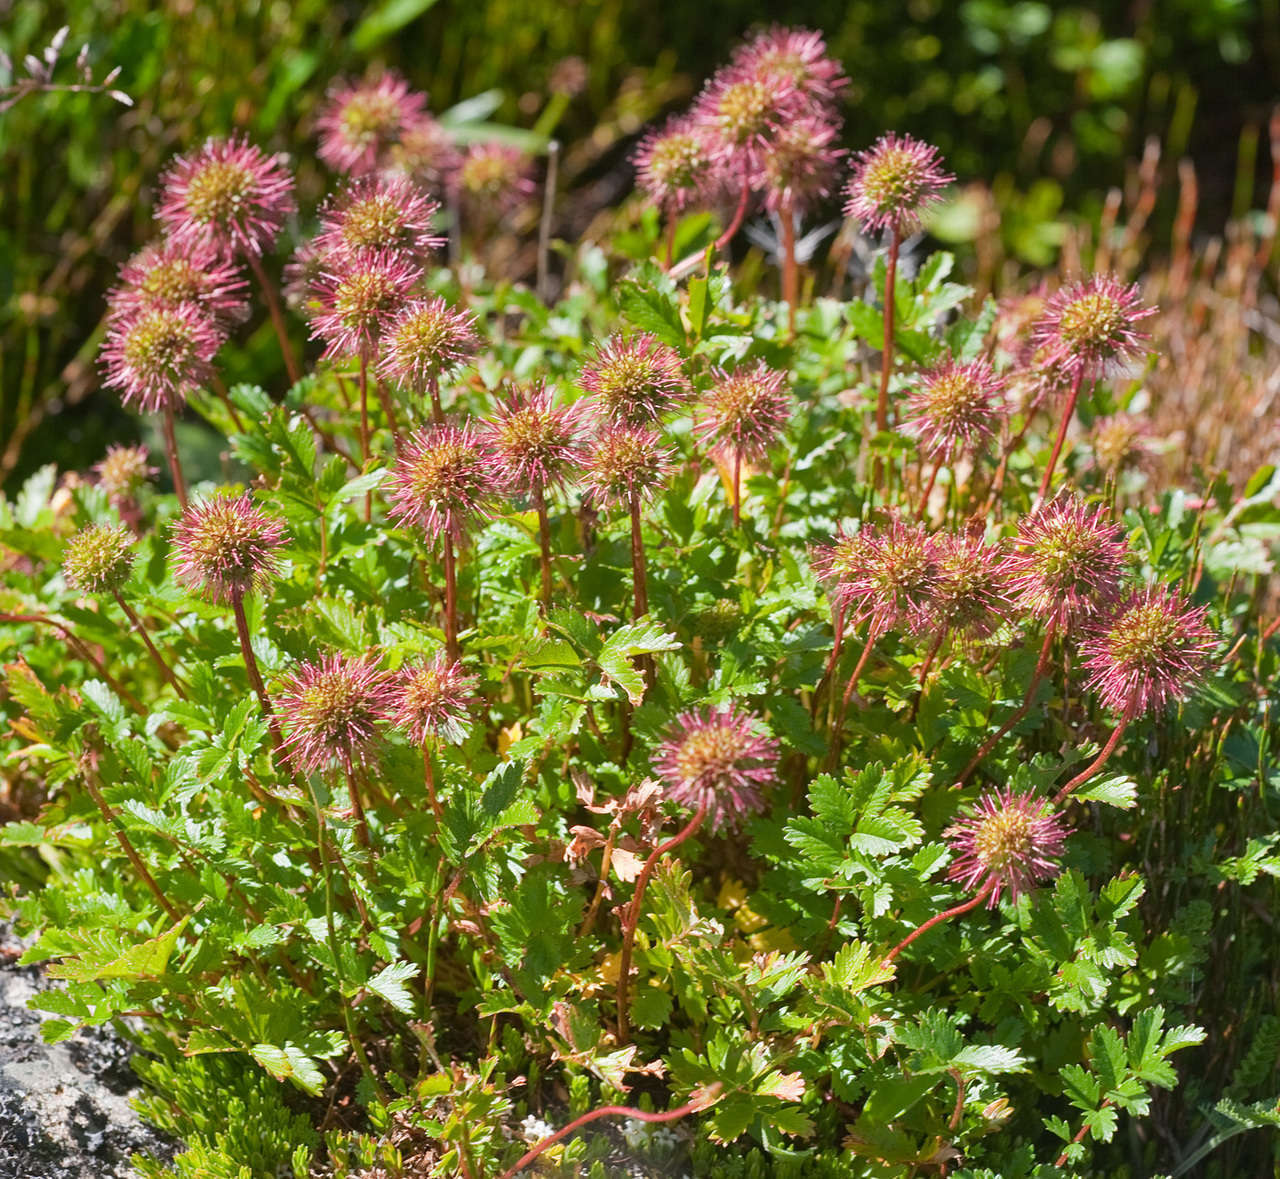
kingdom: Plantae
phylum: Tracheophyta
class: Magnoliopsida
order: Rosales
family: Rosaceae
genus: Acaena
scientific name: Acaena novae-zelandiae
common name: Pirri-pirri-bur
